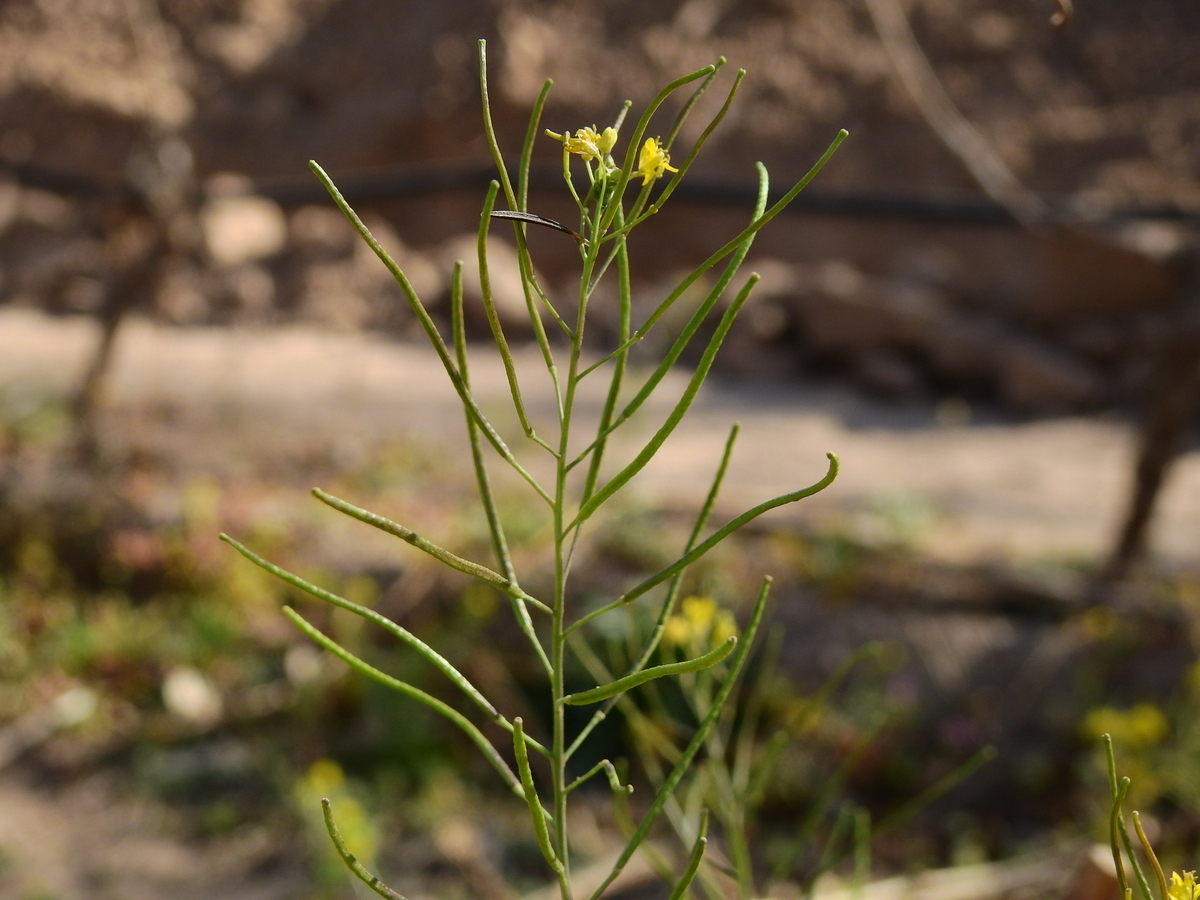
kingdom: Plantae
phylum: Tracheophyta
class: Magnoliopsida
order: Brassicales
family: Brassicaceae
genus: Sisymbrium
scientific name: Sisymbrium irio
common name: London rocket
